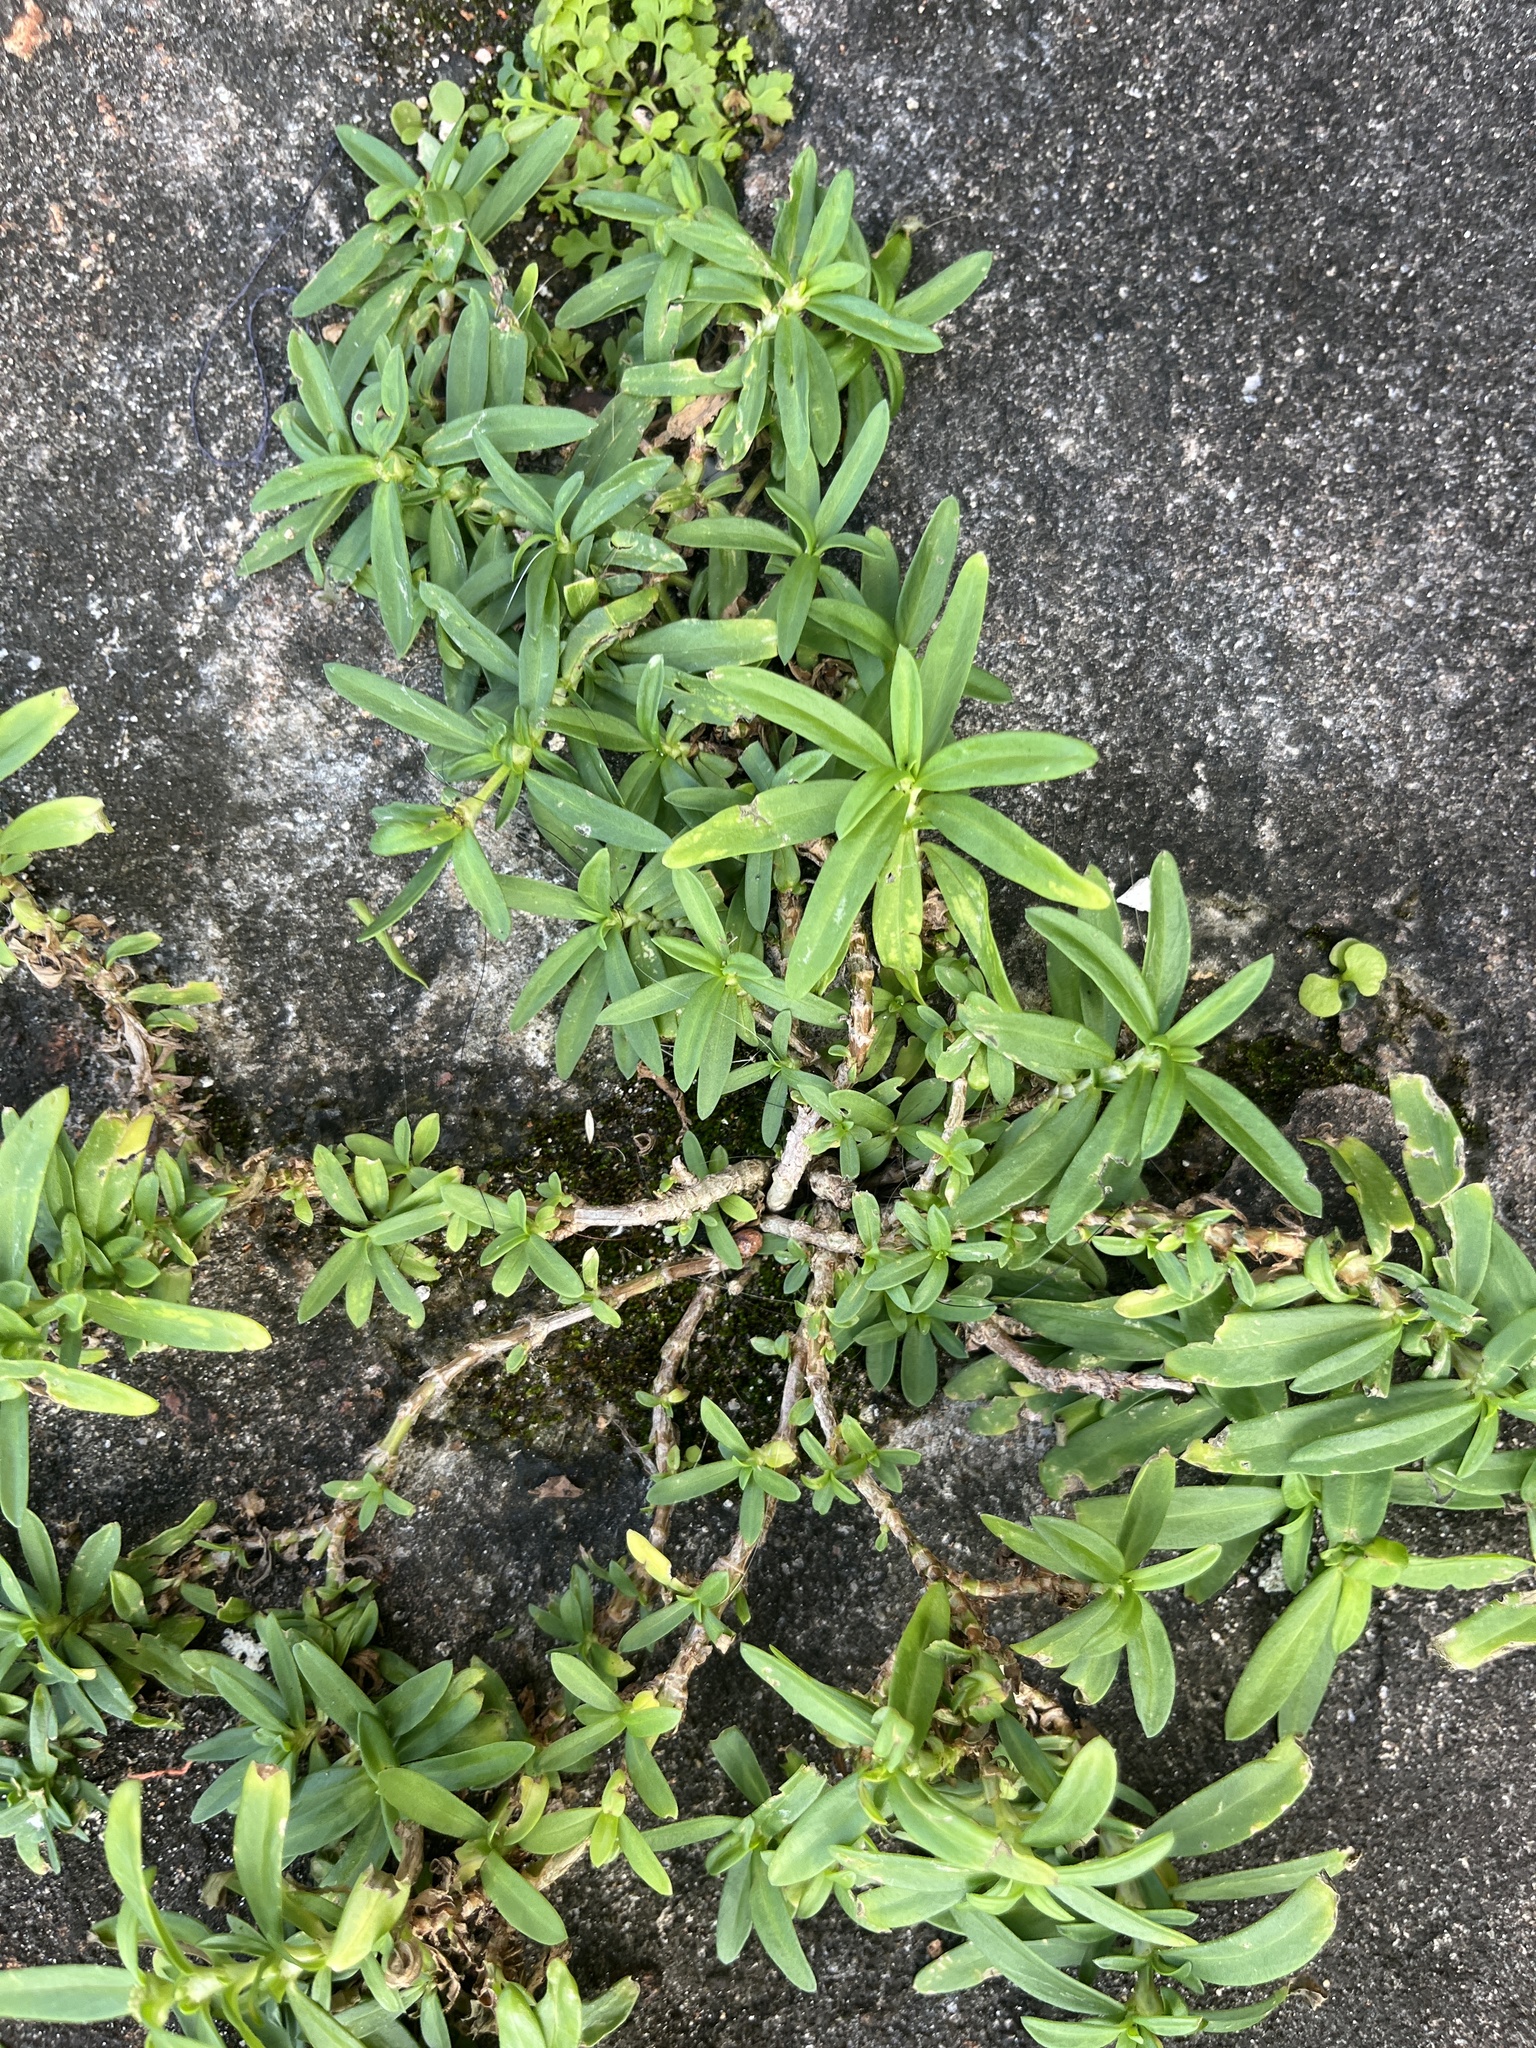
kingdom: Plantae
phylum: Tracheophyta
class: Magnoliopsida
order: Gentianales
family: Rubiaceae
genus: Oldenlandia
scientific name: Oldenlandia corymbosa
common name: Flat-top mille graines
